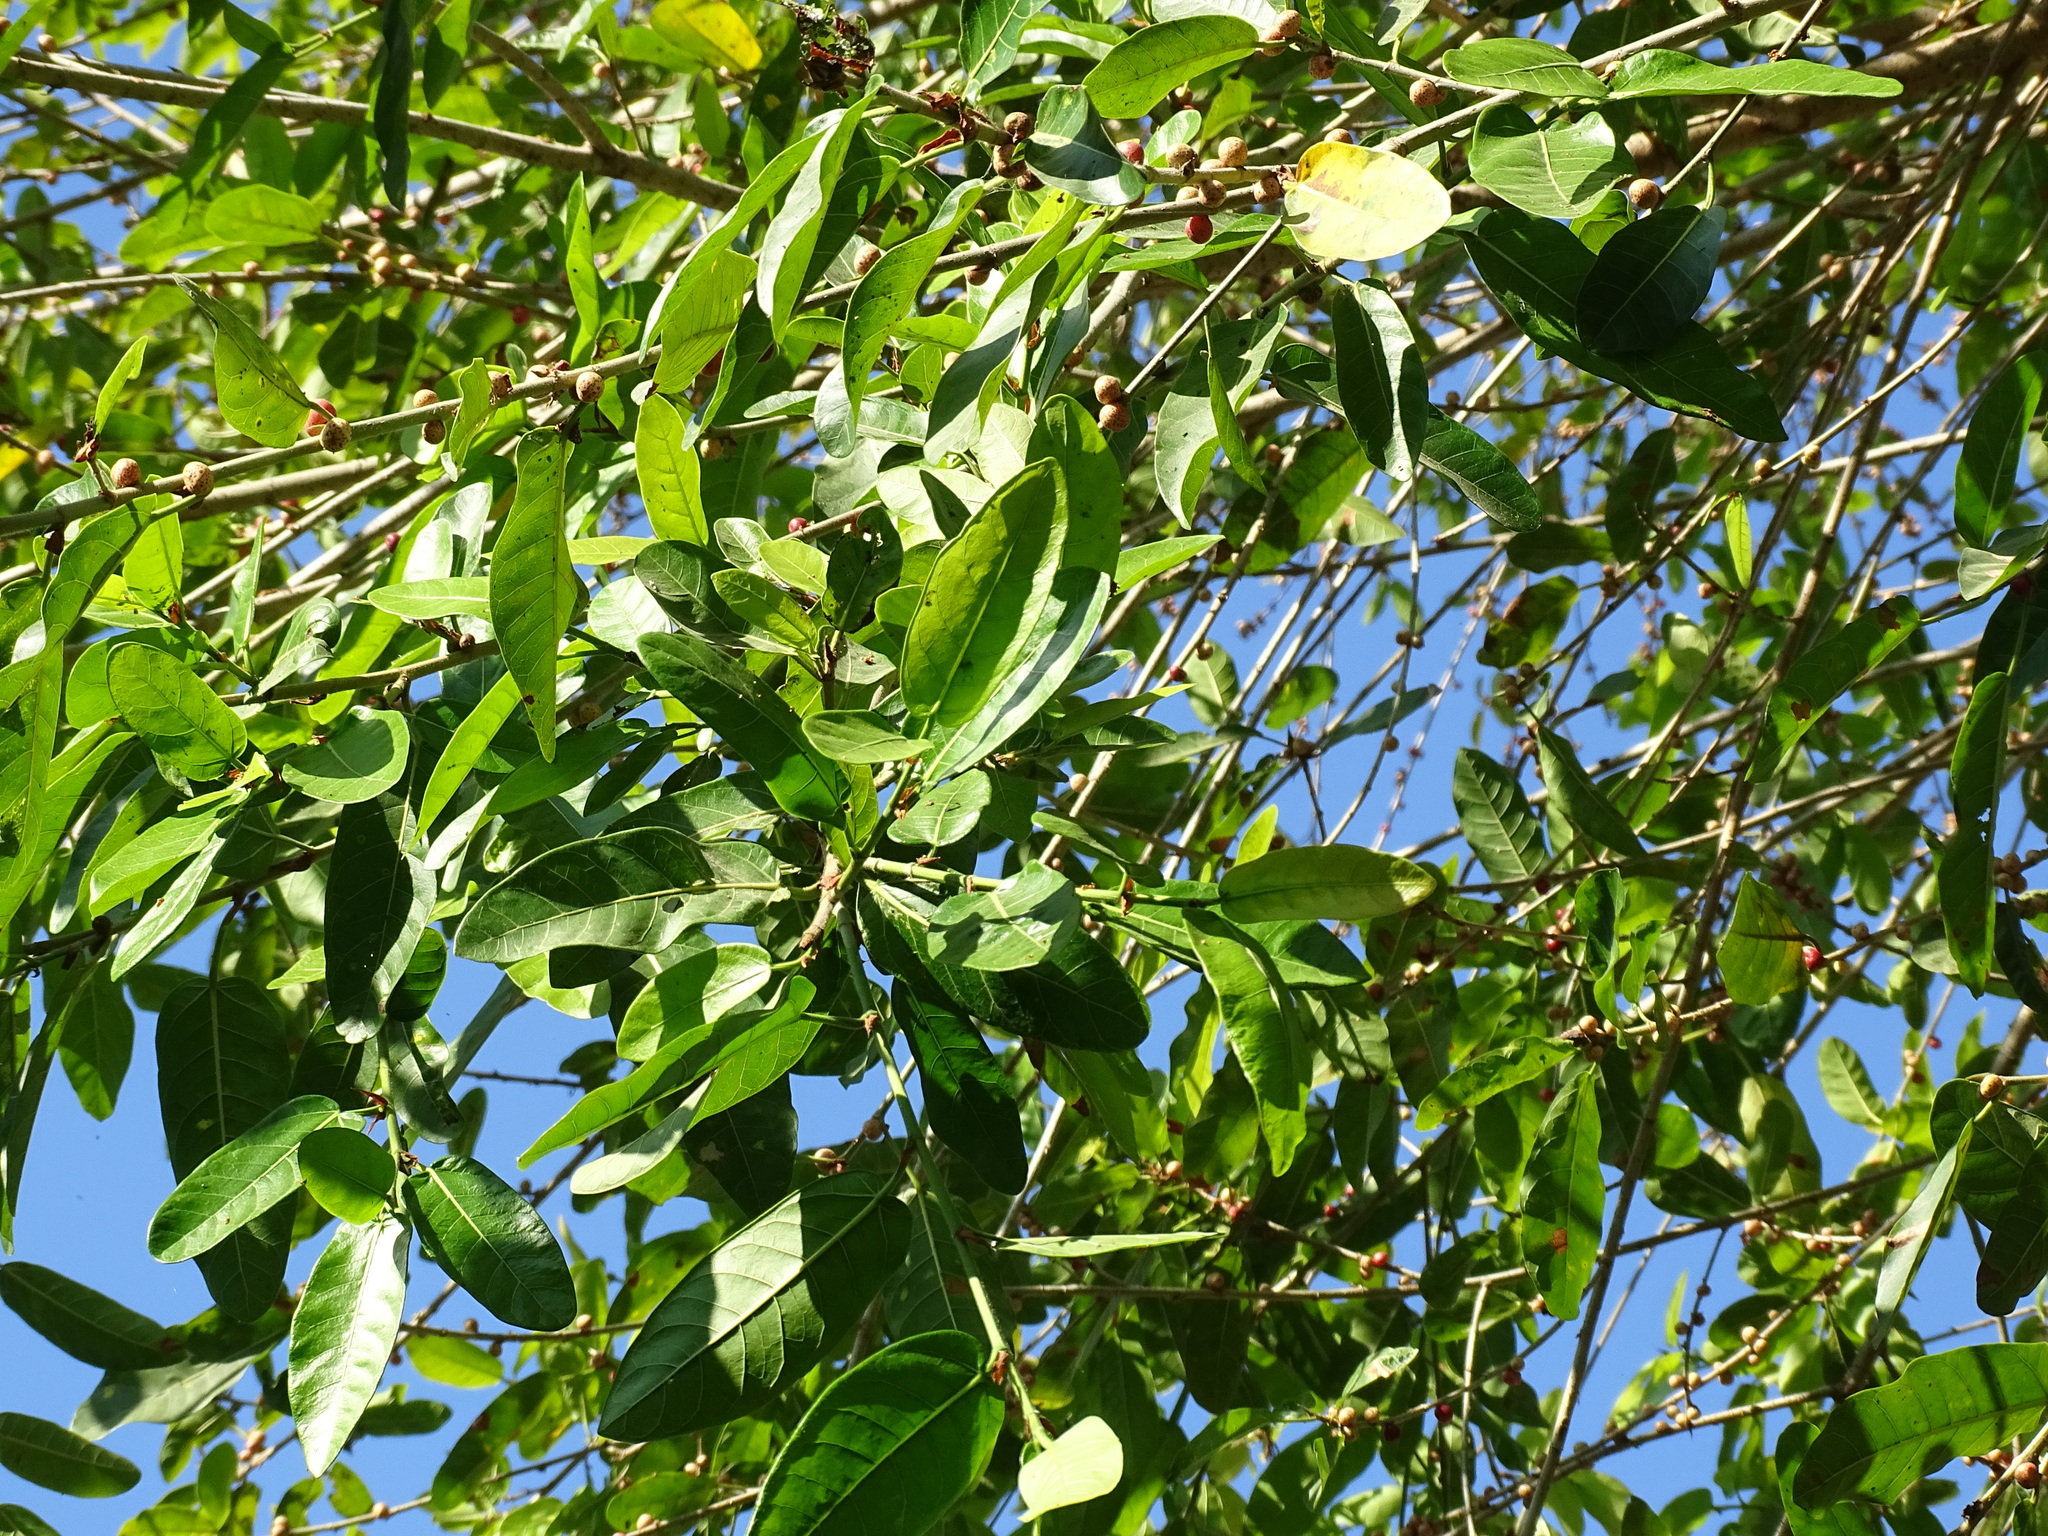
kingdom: Plantae
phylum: Tracheophyta
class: Magnoliopsida
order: Rosales
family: Moraceae
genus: Ficus
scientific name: Ficus costaricana
